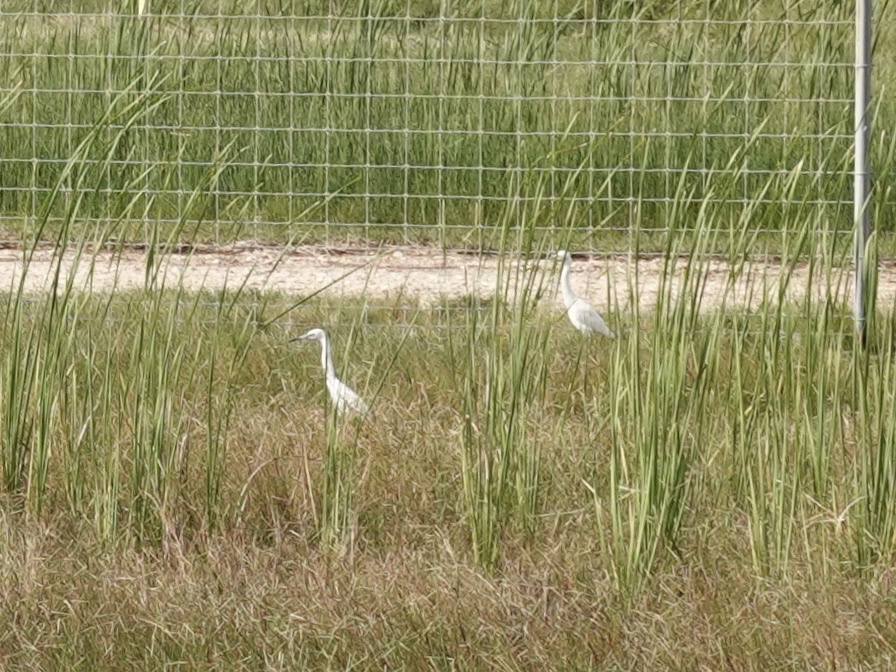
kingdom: Animalia
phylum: Chordata
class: Aves
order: Pelecaniformes
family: Ardeidae
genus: Egretta
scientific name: Egretta thula
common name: Snowy egret
